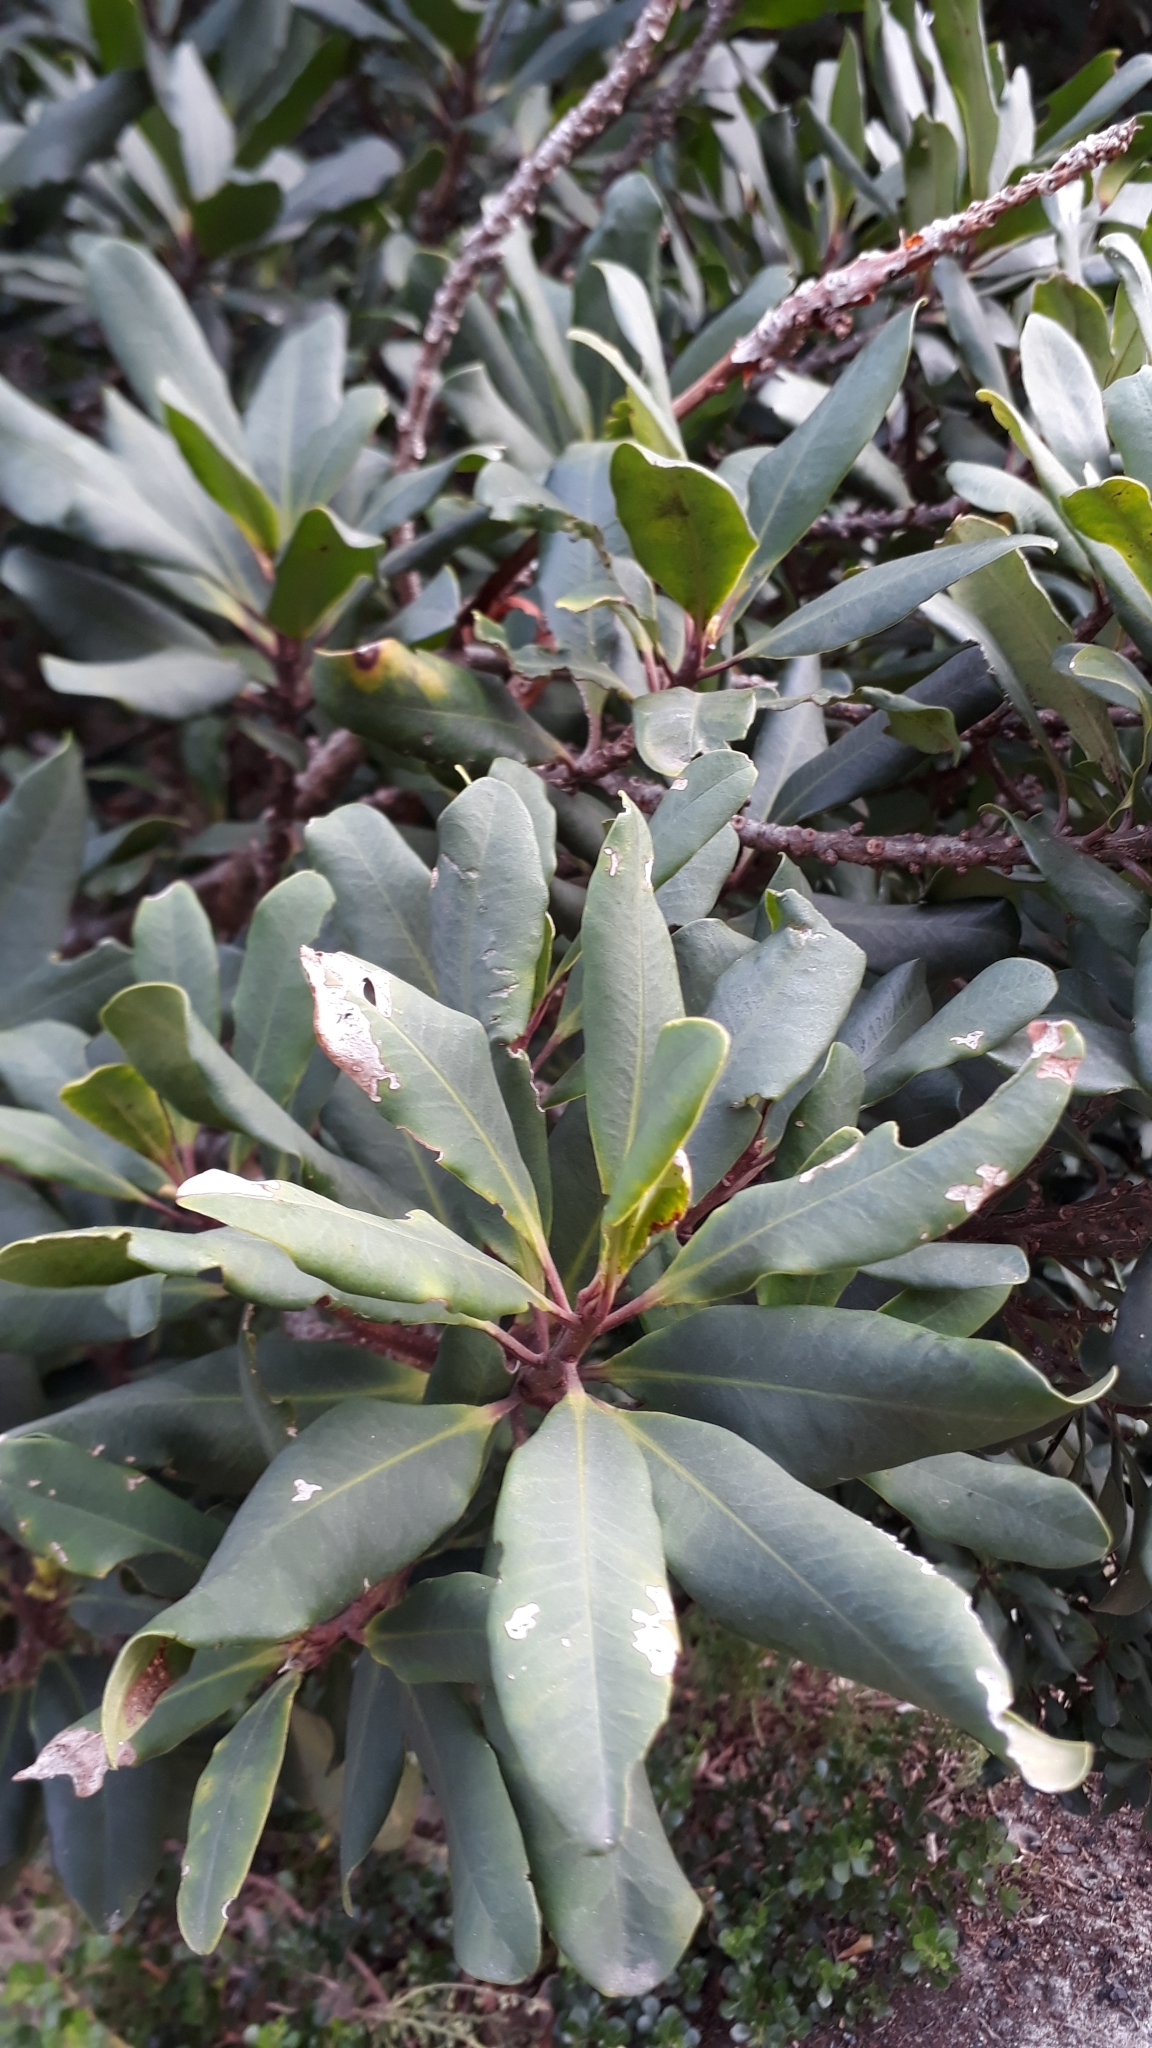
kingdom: Plantae
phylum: Tracheophyta
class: Magnoliopsida
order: Ericales
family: Primulaceae
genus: Myrsine
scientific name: Myrsine melanophloeos
